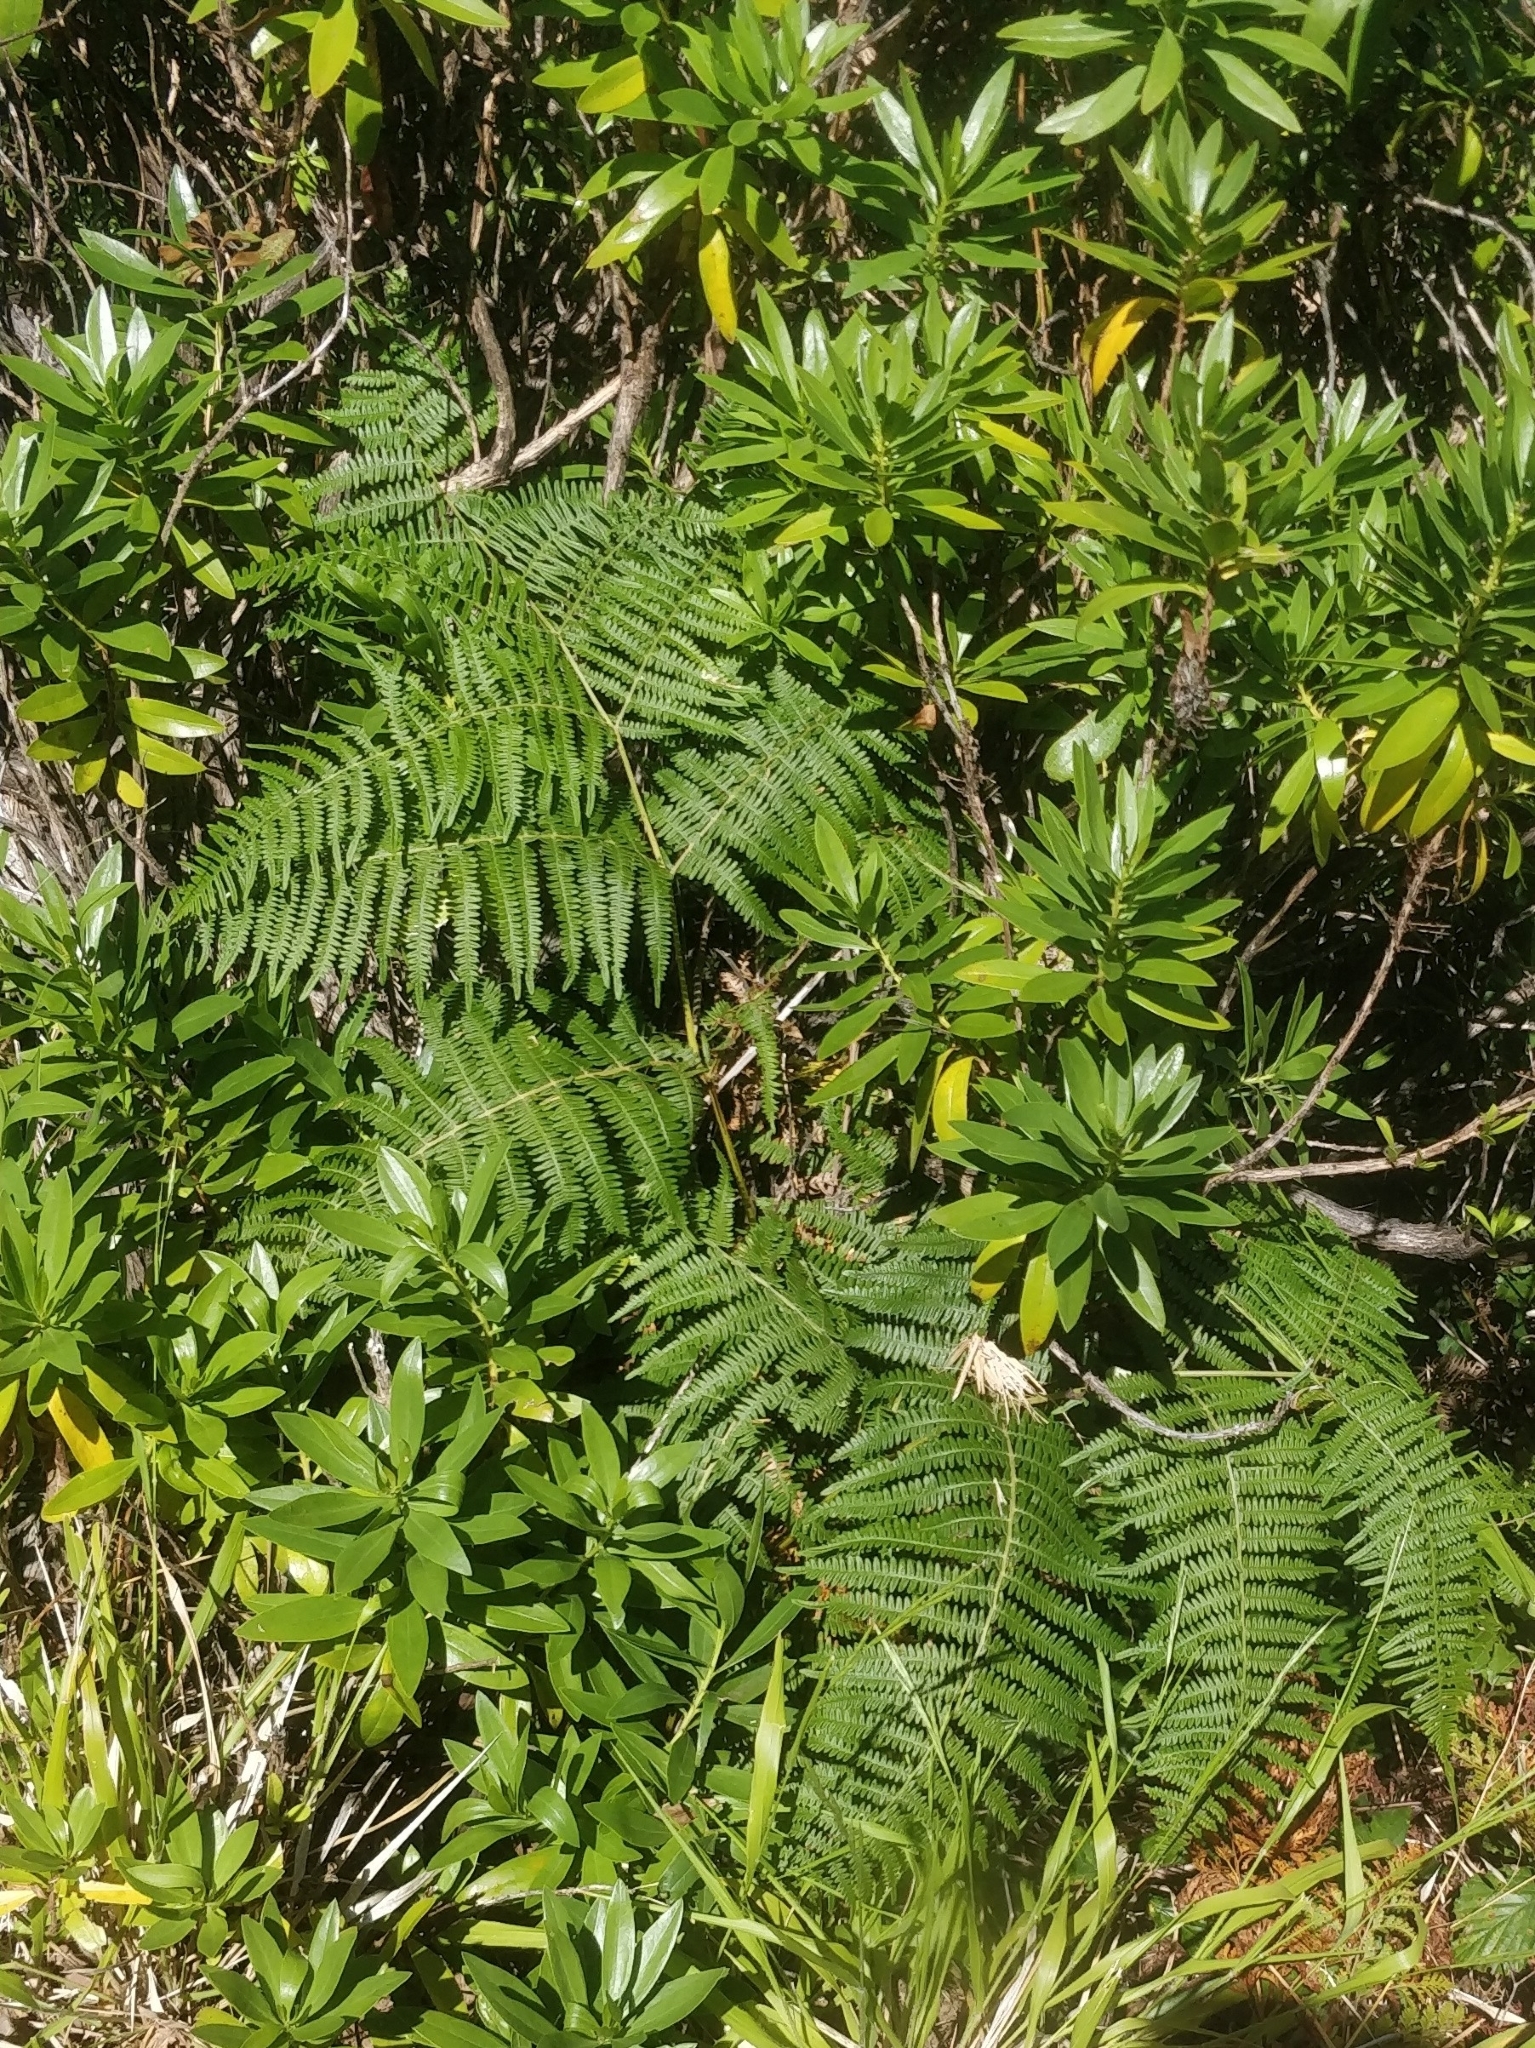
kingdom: Plantae
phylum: Tracheophyta
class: Polypodiopsida
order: Polypodiales
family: Dennstaedtiaceae
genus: Pteridium
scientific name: Pteridium aquilinum
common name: Bracken
